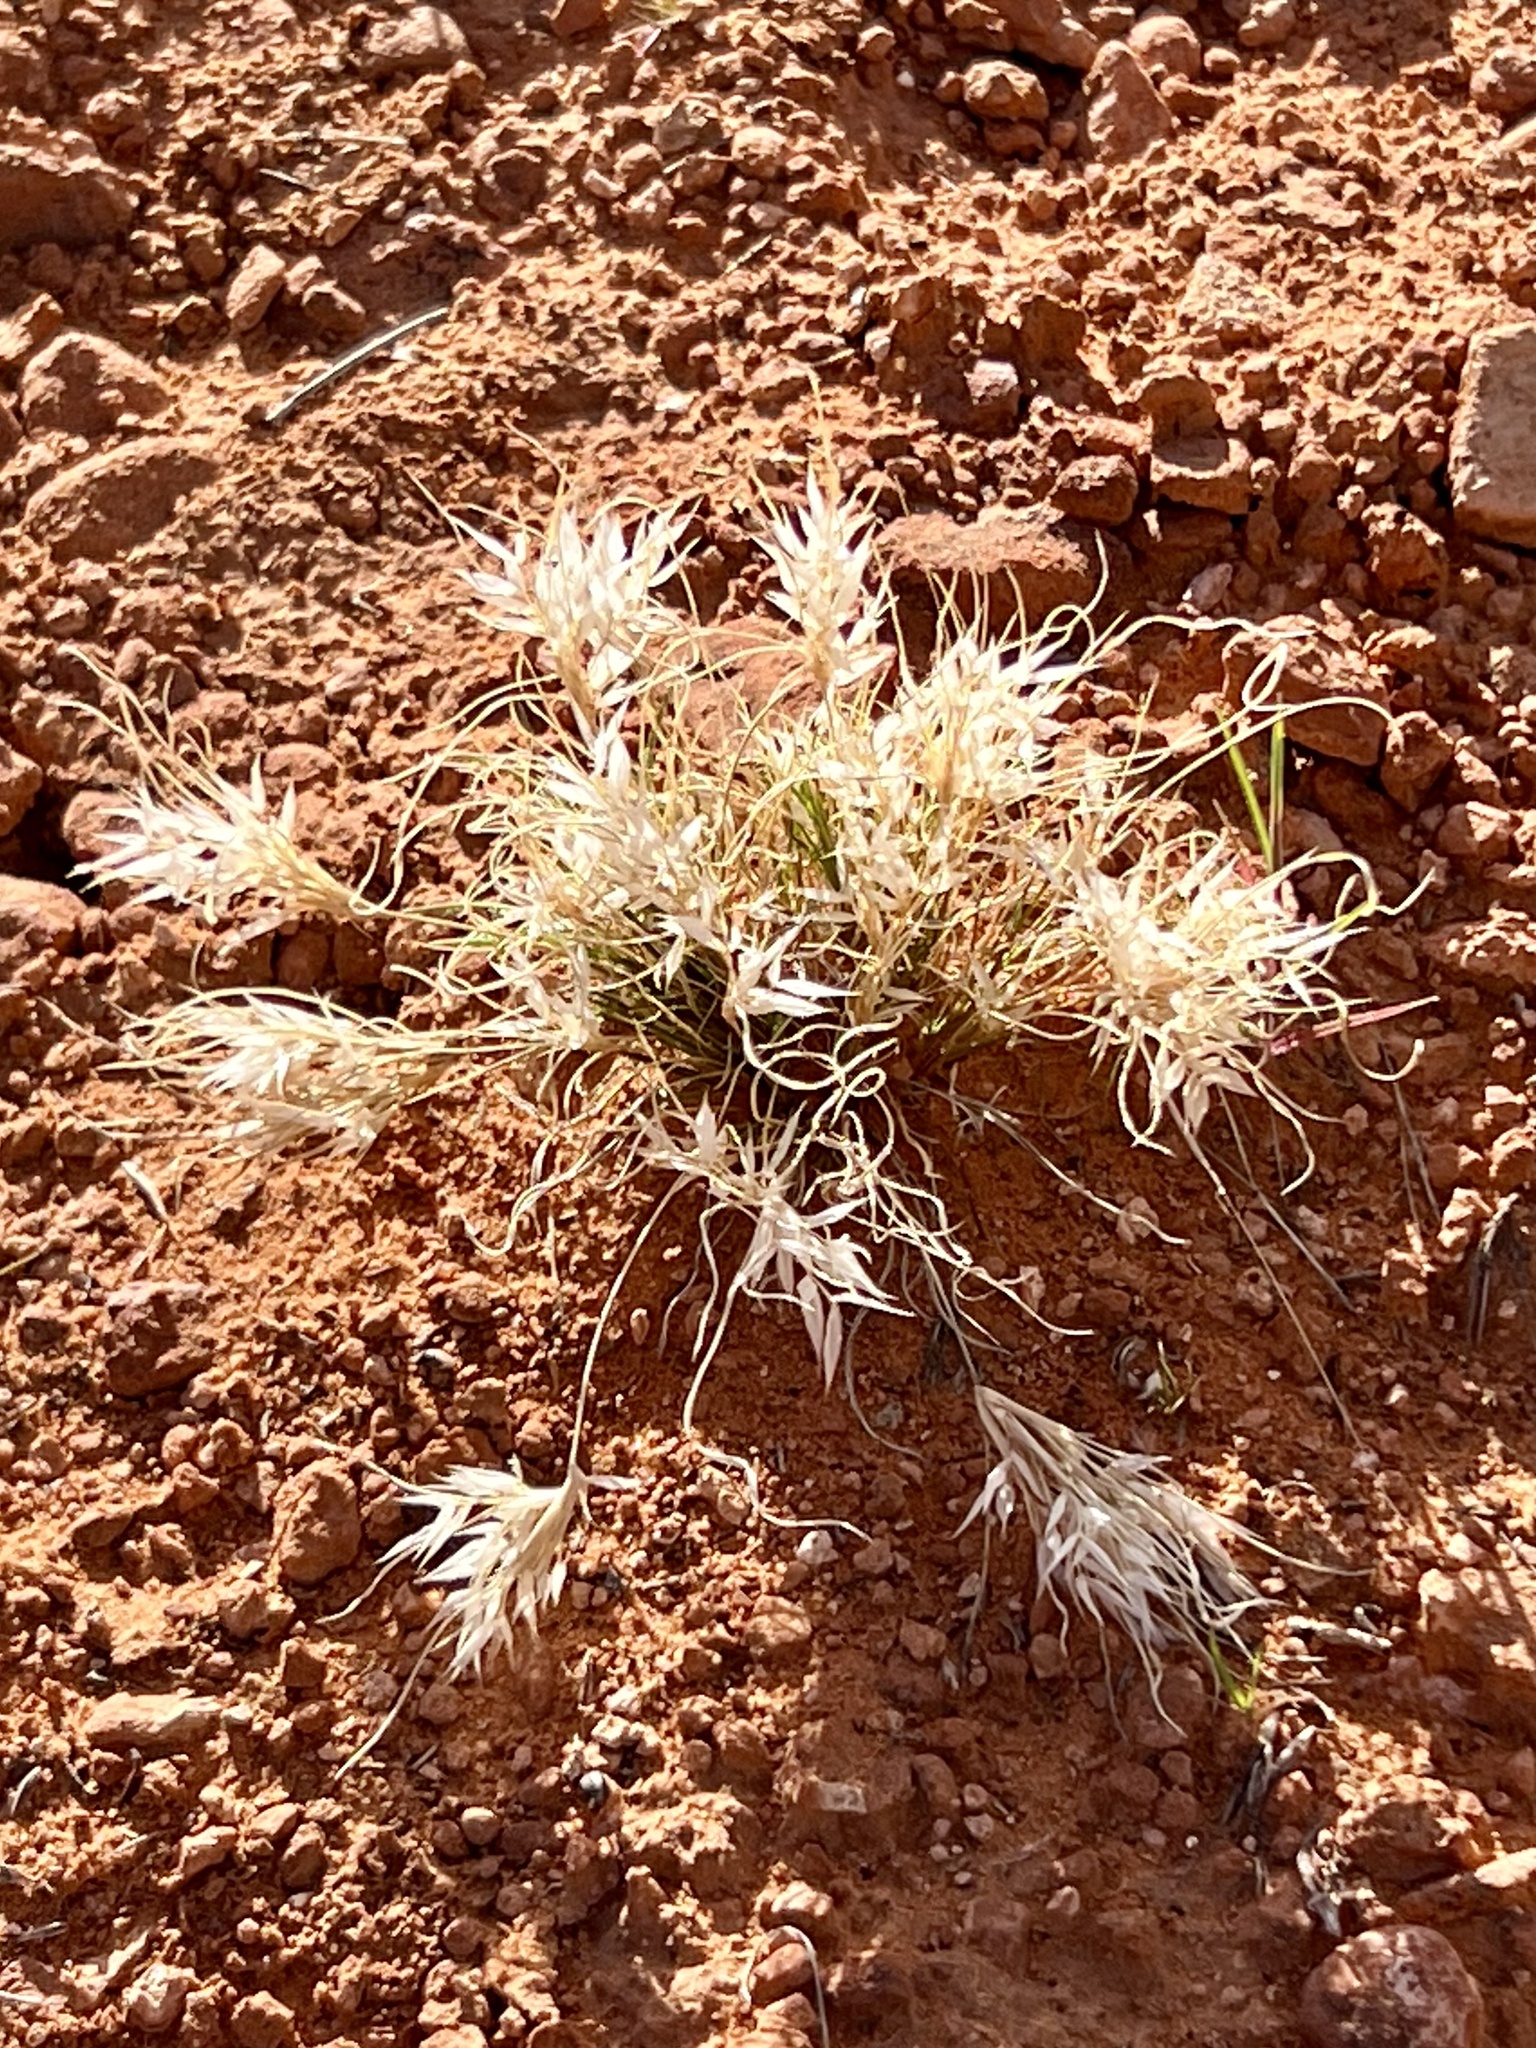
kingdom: Plantae
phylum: Tracheophyta
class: Liliopsida
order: Poales
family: Poaceae
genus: Dasyochloa
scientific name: Dasyochloa pulchella
